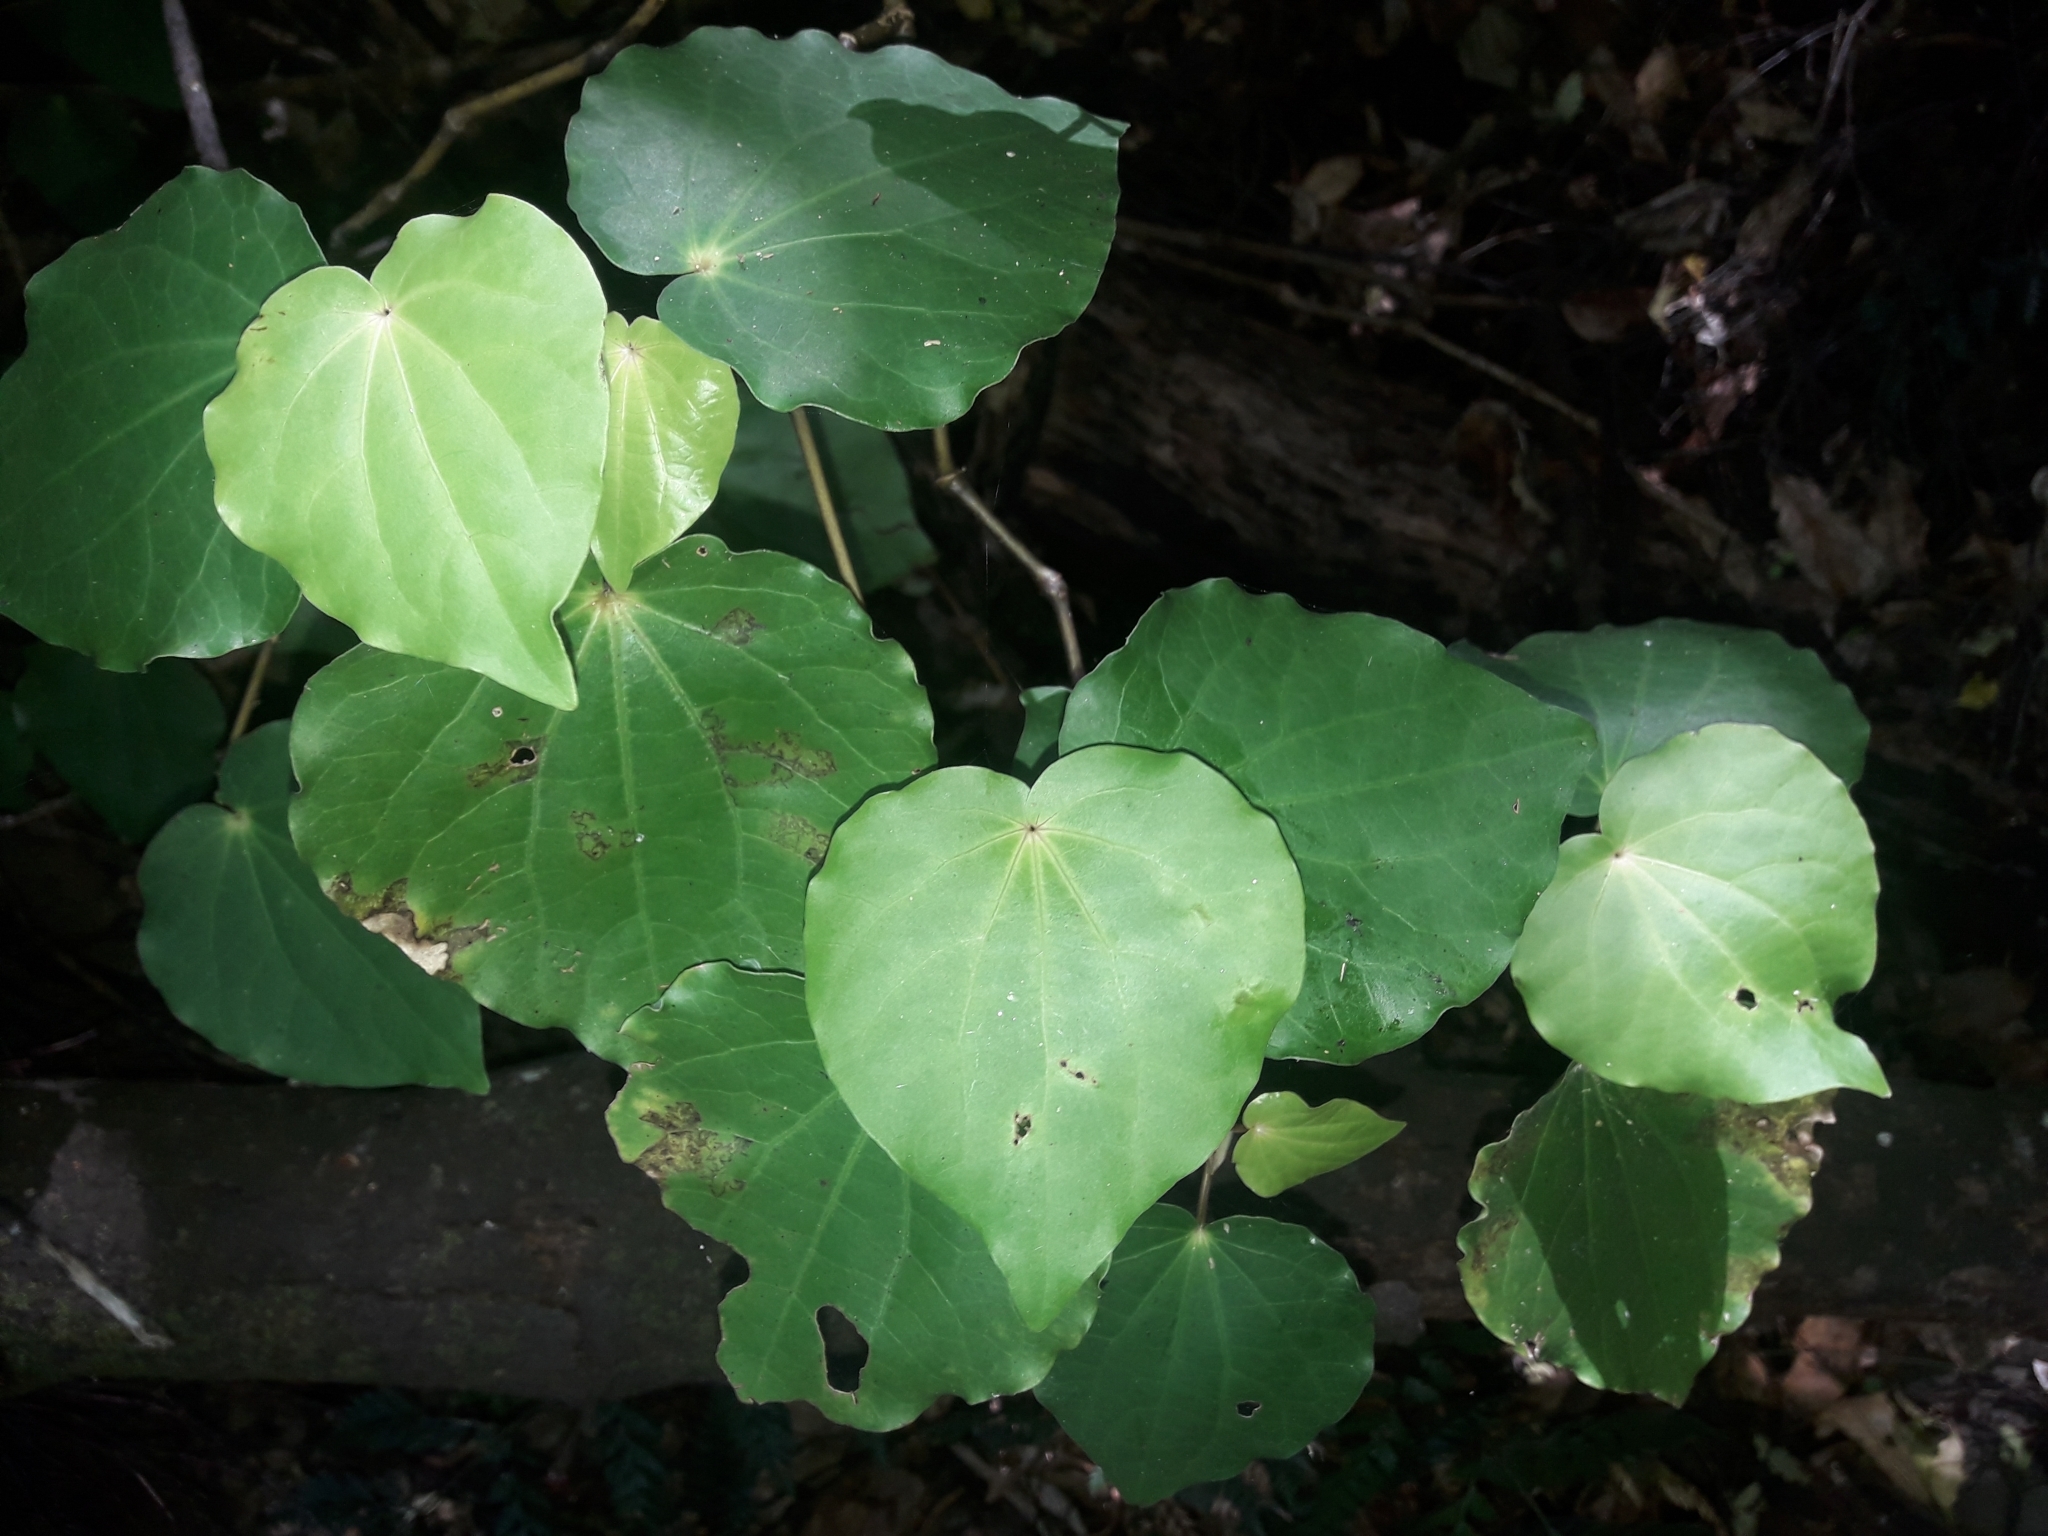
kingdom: Plantae
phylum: Tracheophyta
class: Magnoliopsida
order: Piperales
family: Piperaceae
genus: Macropiper
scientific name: Macropiper excelsum
